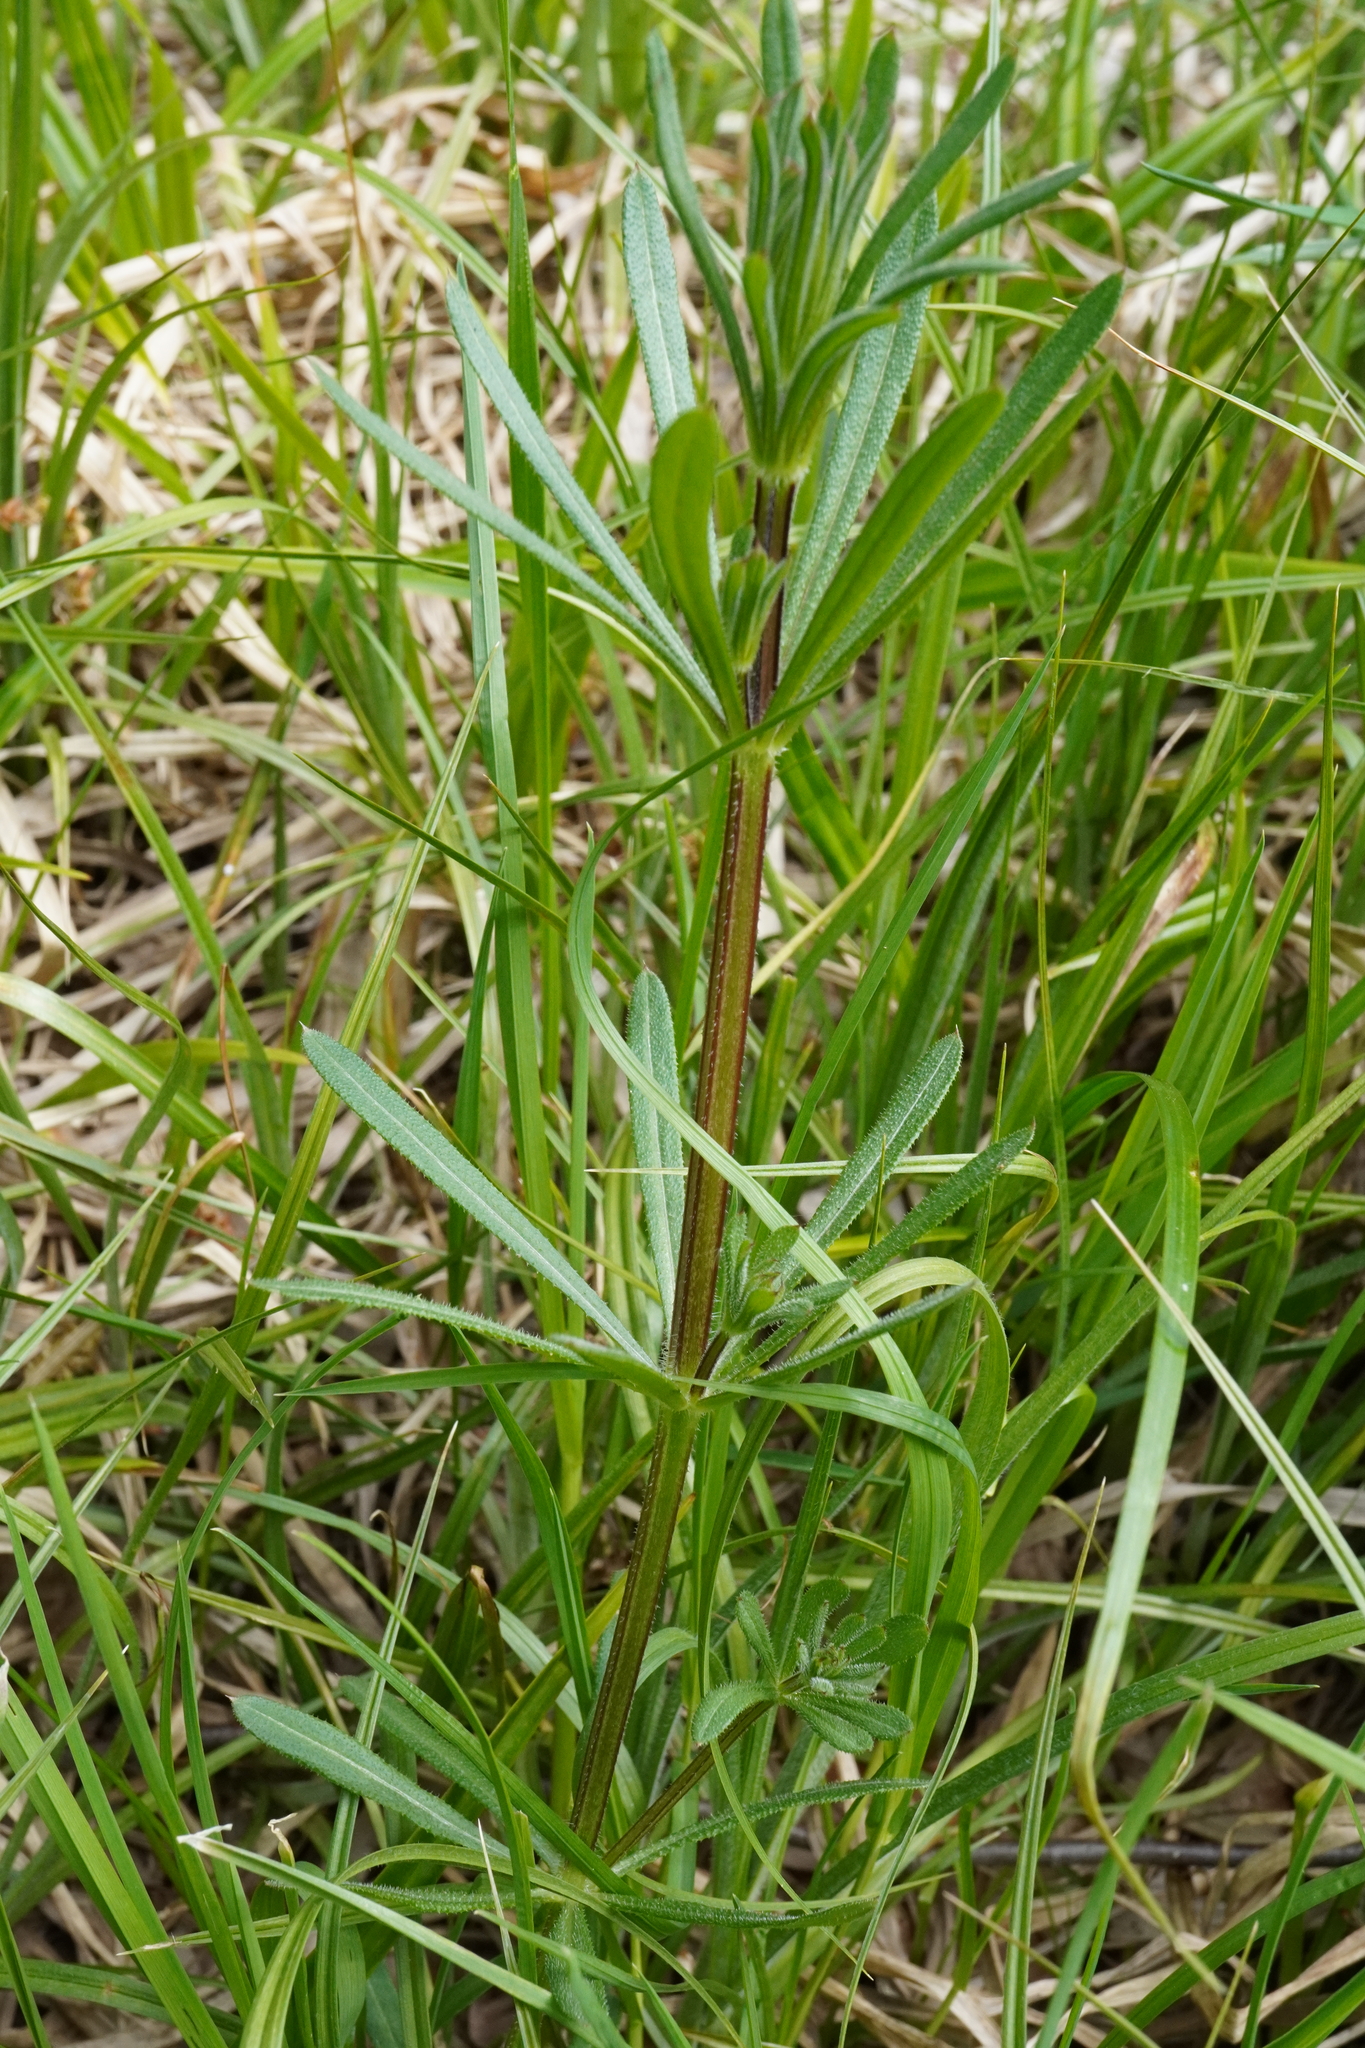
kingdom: Plantae
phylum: Tracheophyta
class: Magnoliopsida
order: Gentianales
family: Rubiaceae
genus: Galium
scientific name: Galium aparine
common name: Cleavers
